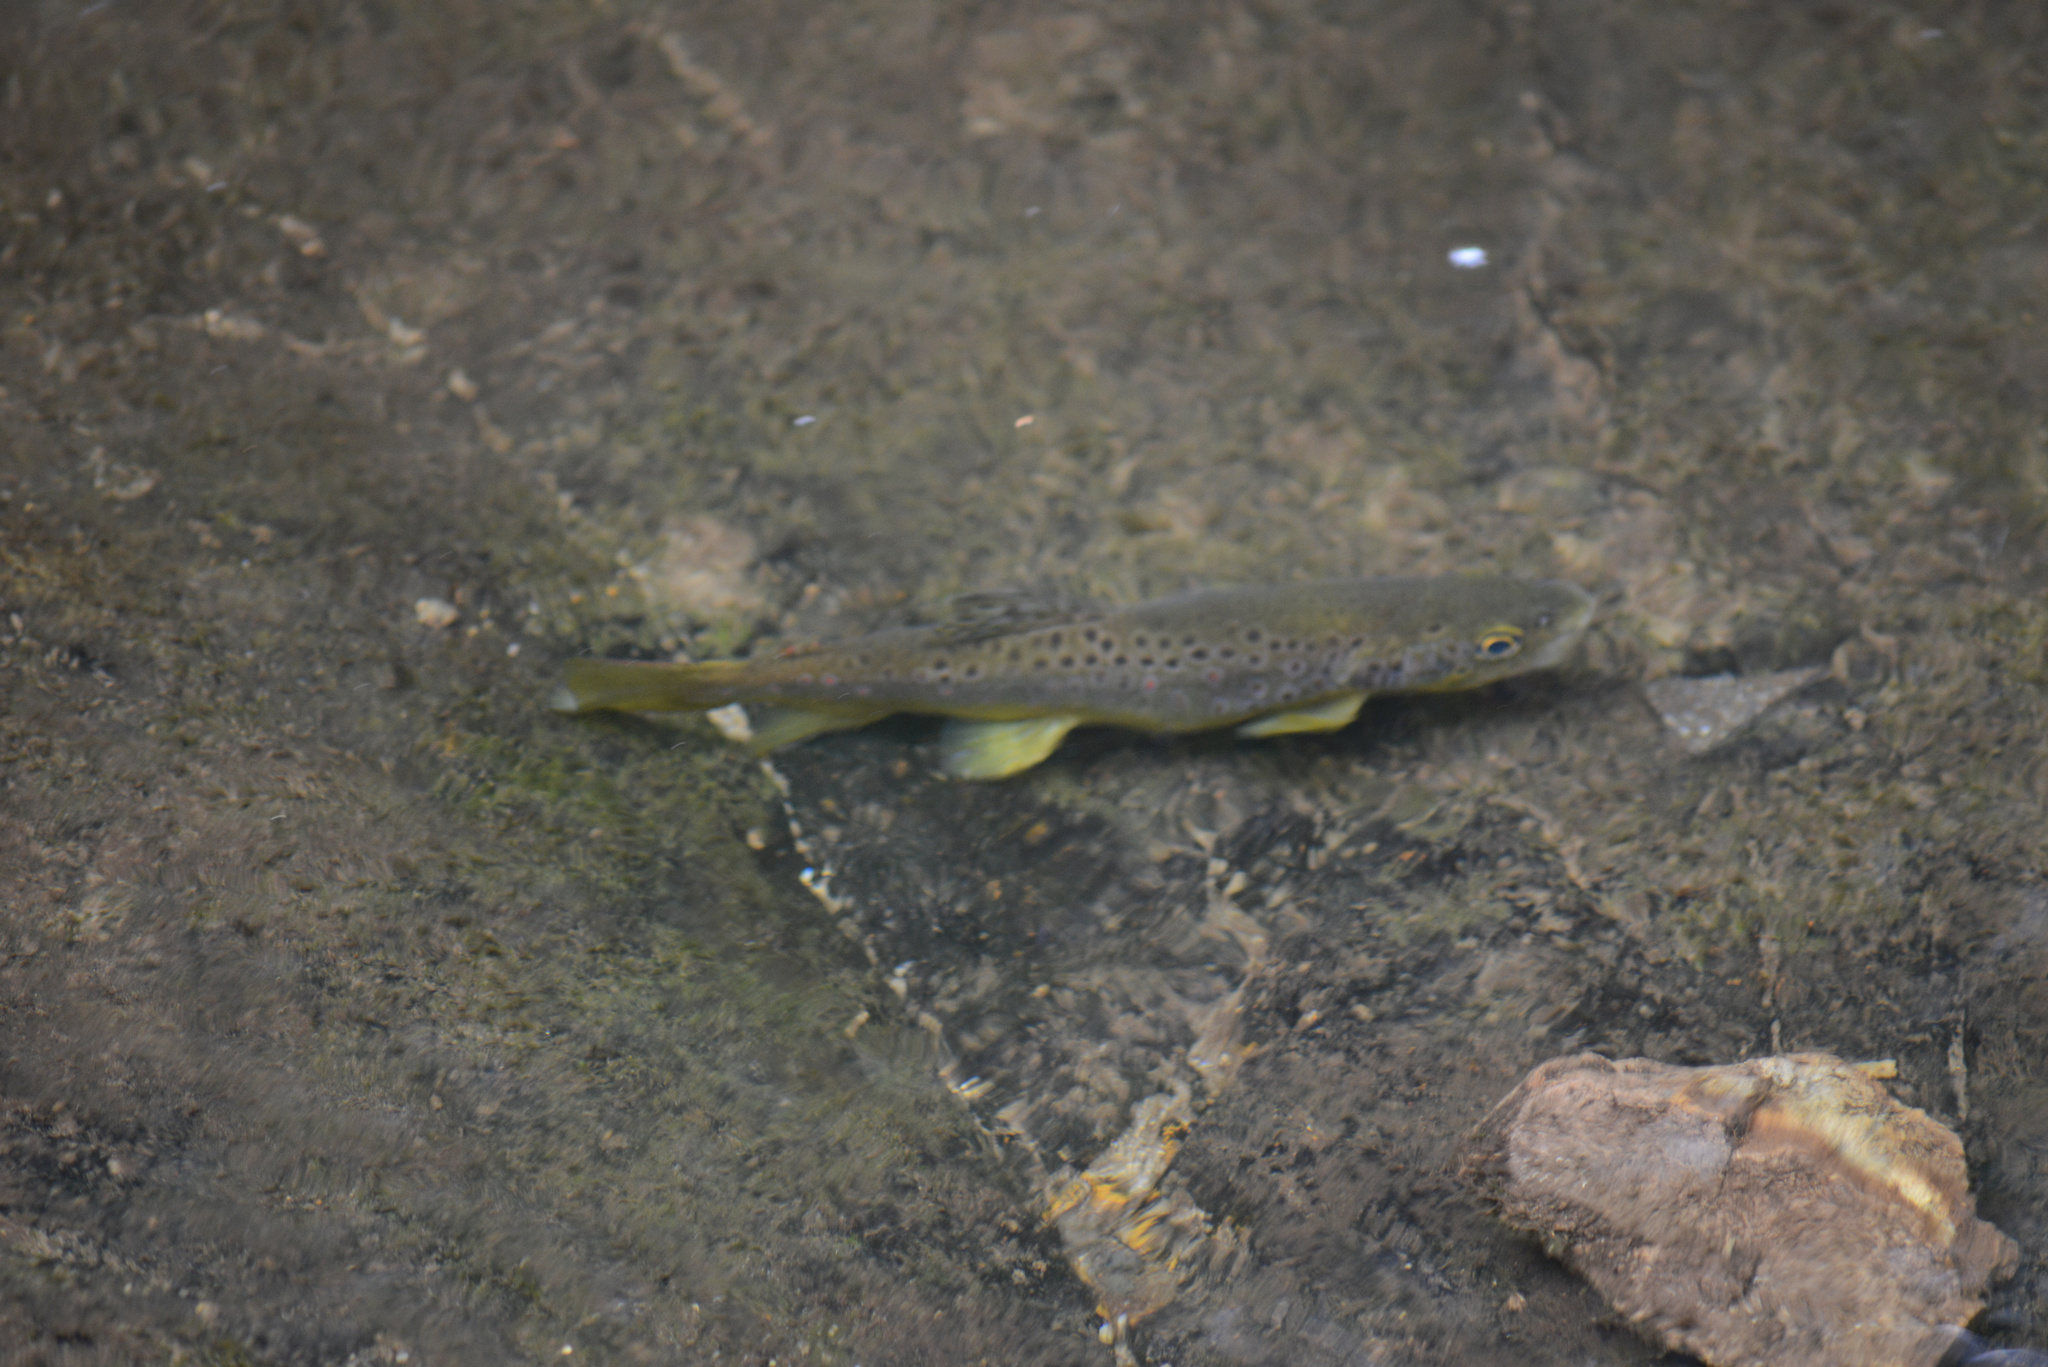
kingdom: Animalia
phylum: Chordata
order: Salmoniformes
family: Salmonidae
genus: Salmo
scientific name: Salmo trutta
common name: Brown trout
